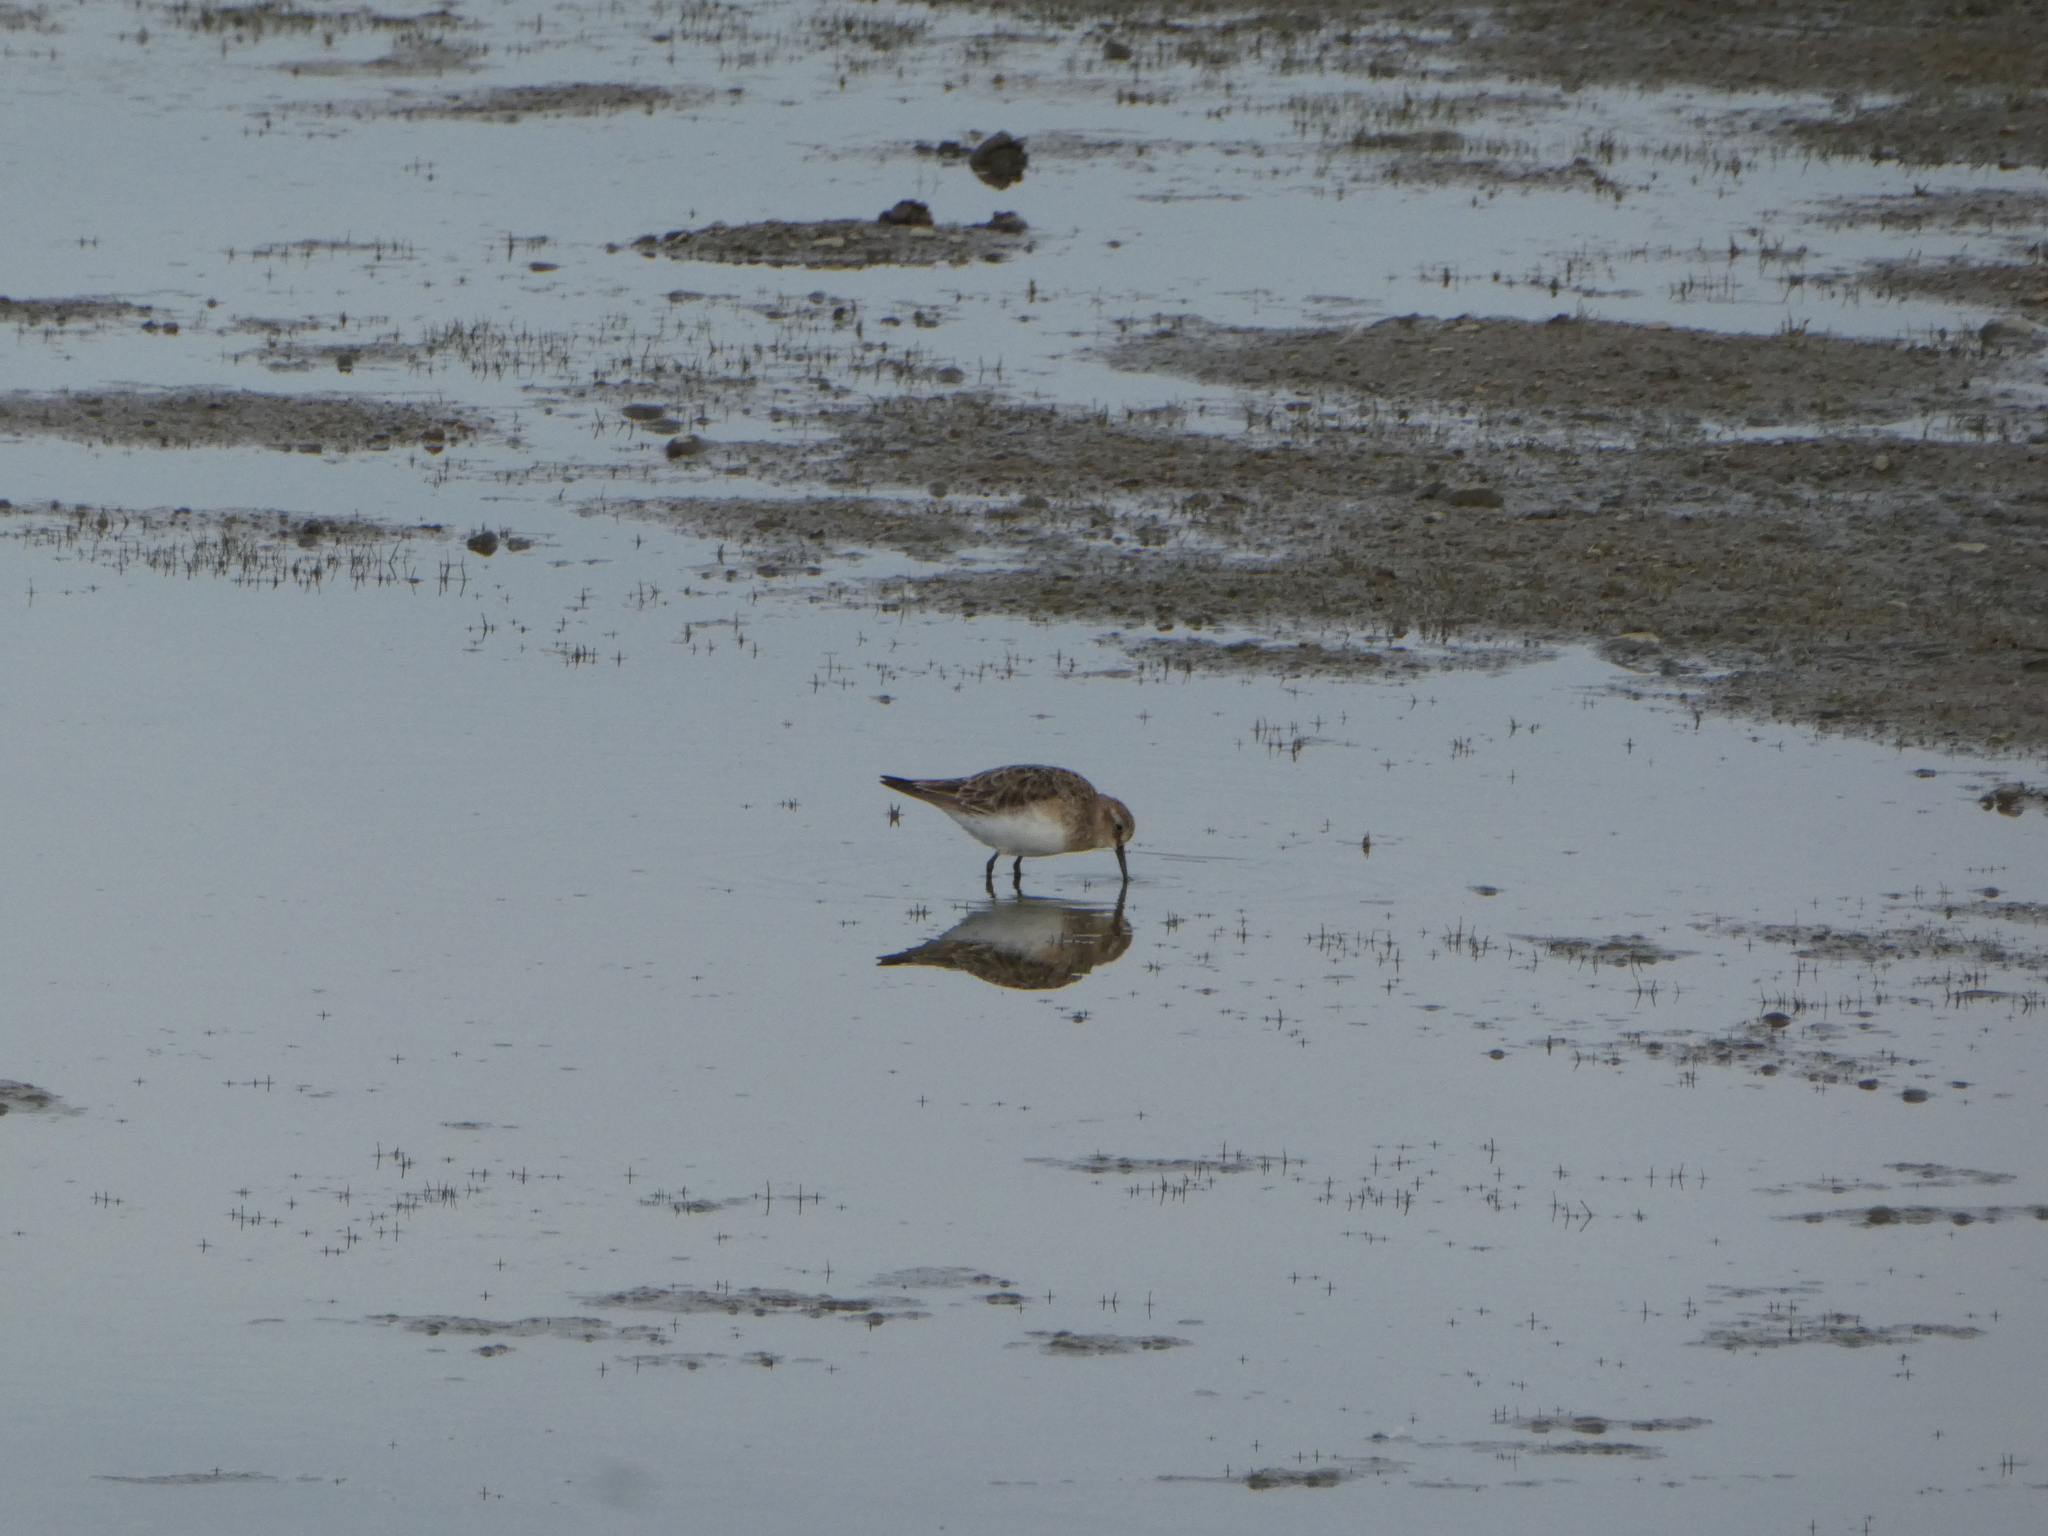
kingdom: Animalia
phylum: Chordata
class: Aves
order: Charadriiformes
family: Scolopacidae
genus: Calidris
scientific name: Calidris bairdii
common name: Baird's sandpiper
